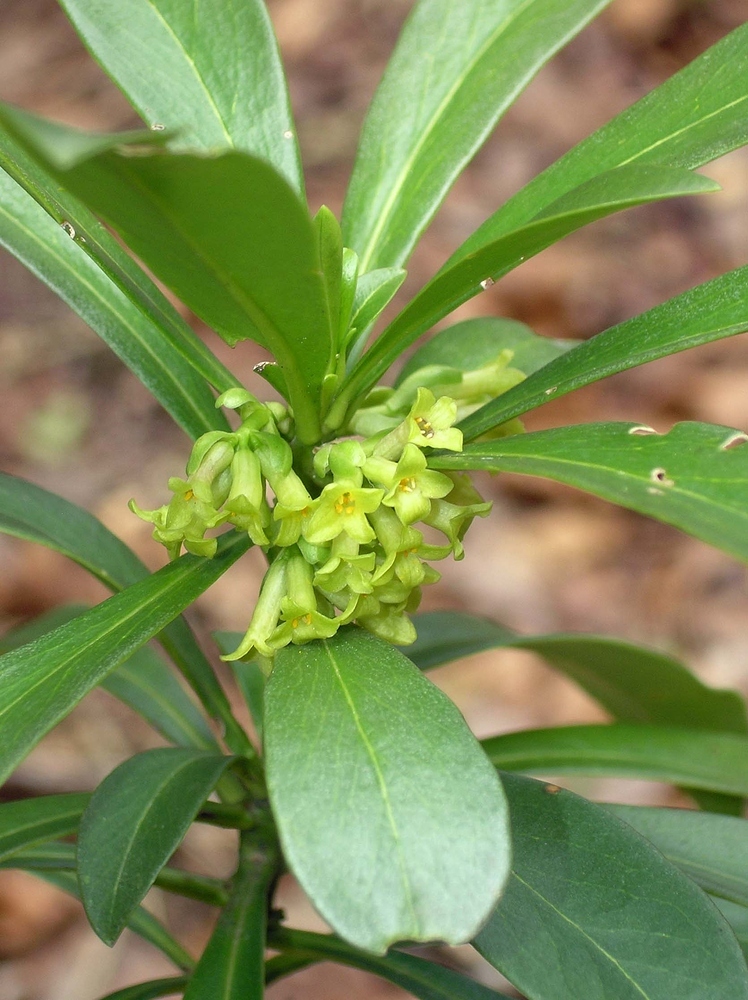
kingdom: Plantae
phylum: Tracheophyta
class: Magnoliopsida
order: Malvales
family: Thymelaeaceae
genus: Daphne
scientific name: Daphne laureola
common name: Spurge-laurel
